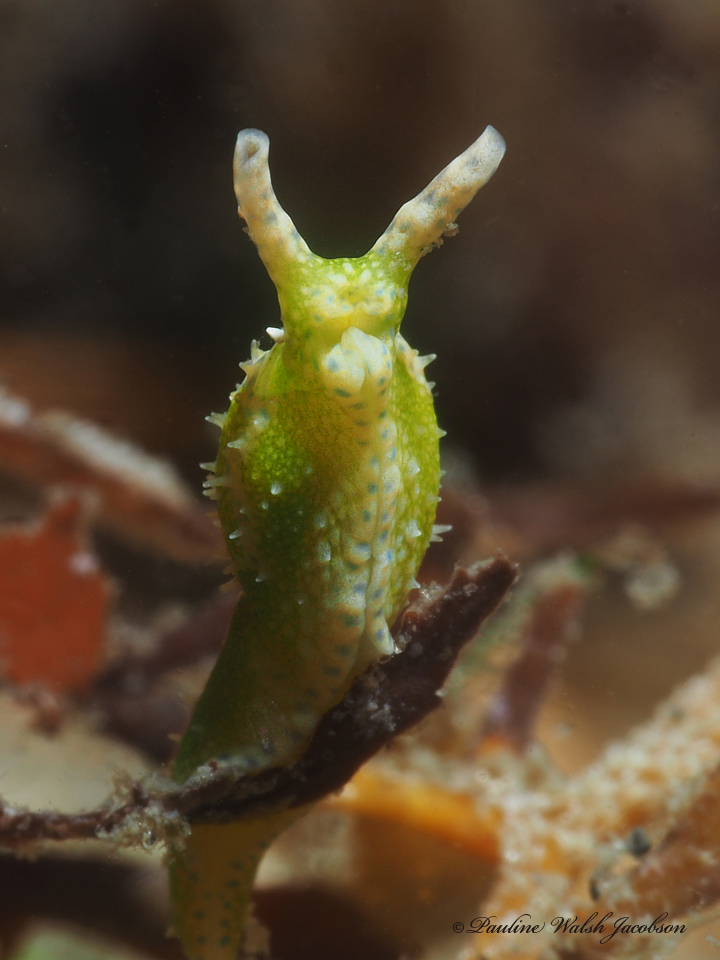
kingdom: Animalia
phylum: Mollusca
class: Gastropoda
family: Oxynoidae
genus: Oxynoe
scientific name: Oxynoe antillarum
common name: Antilles oxynoe
